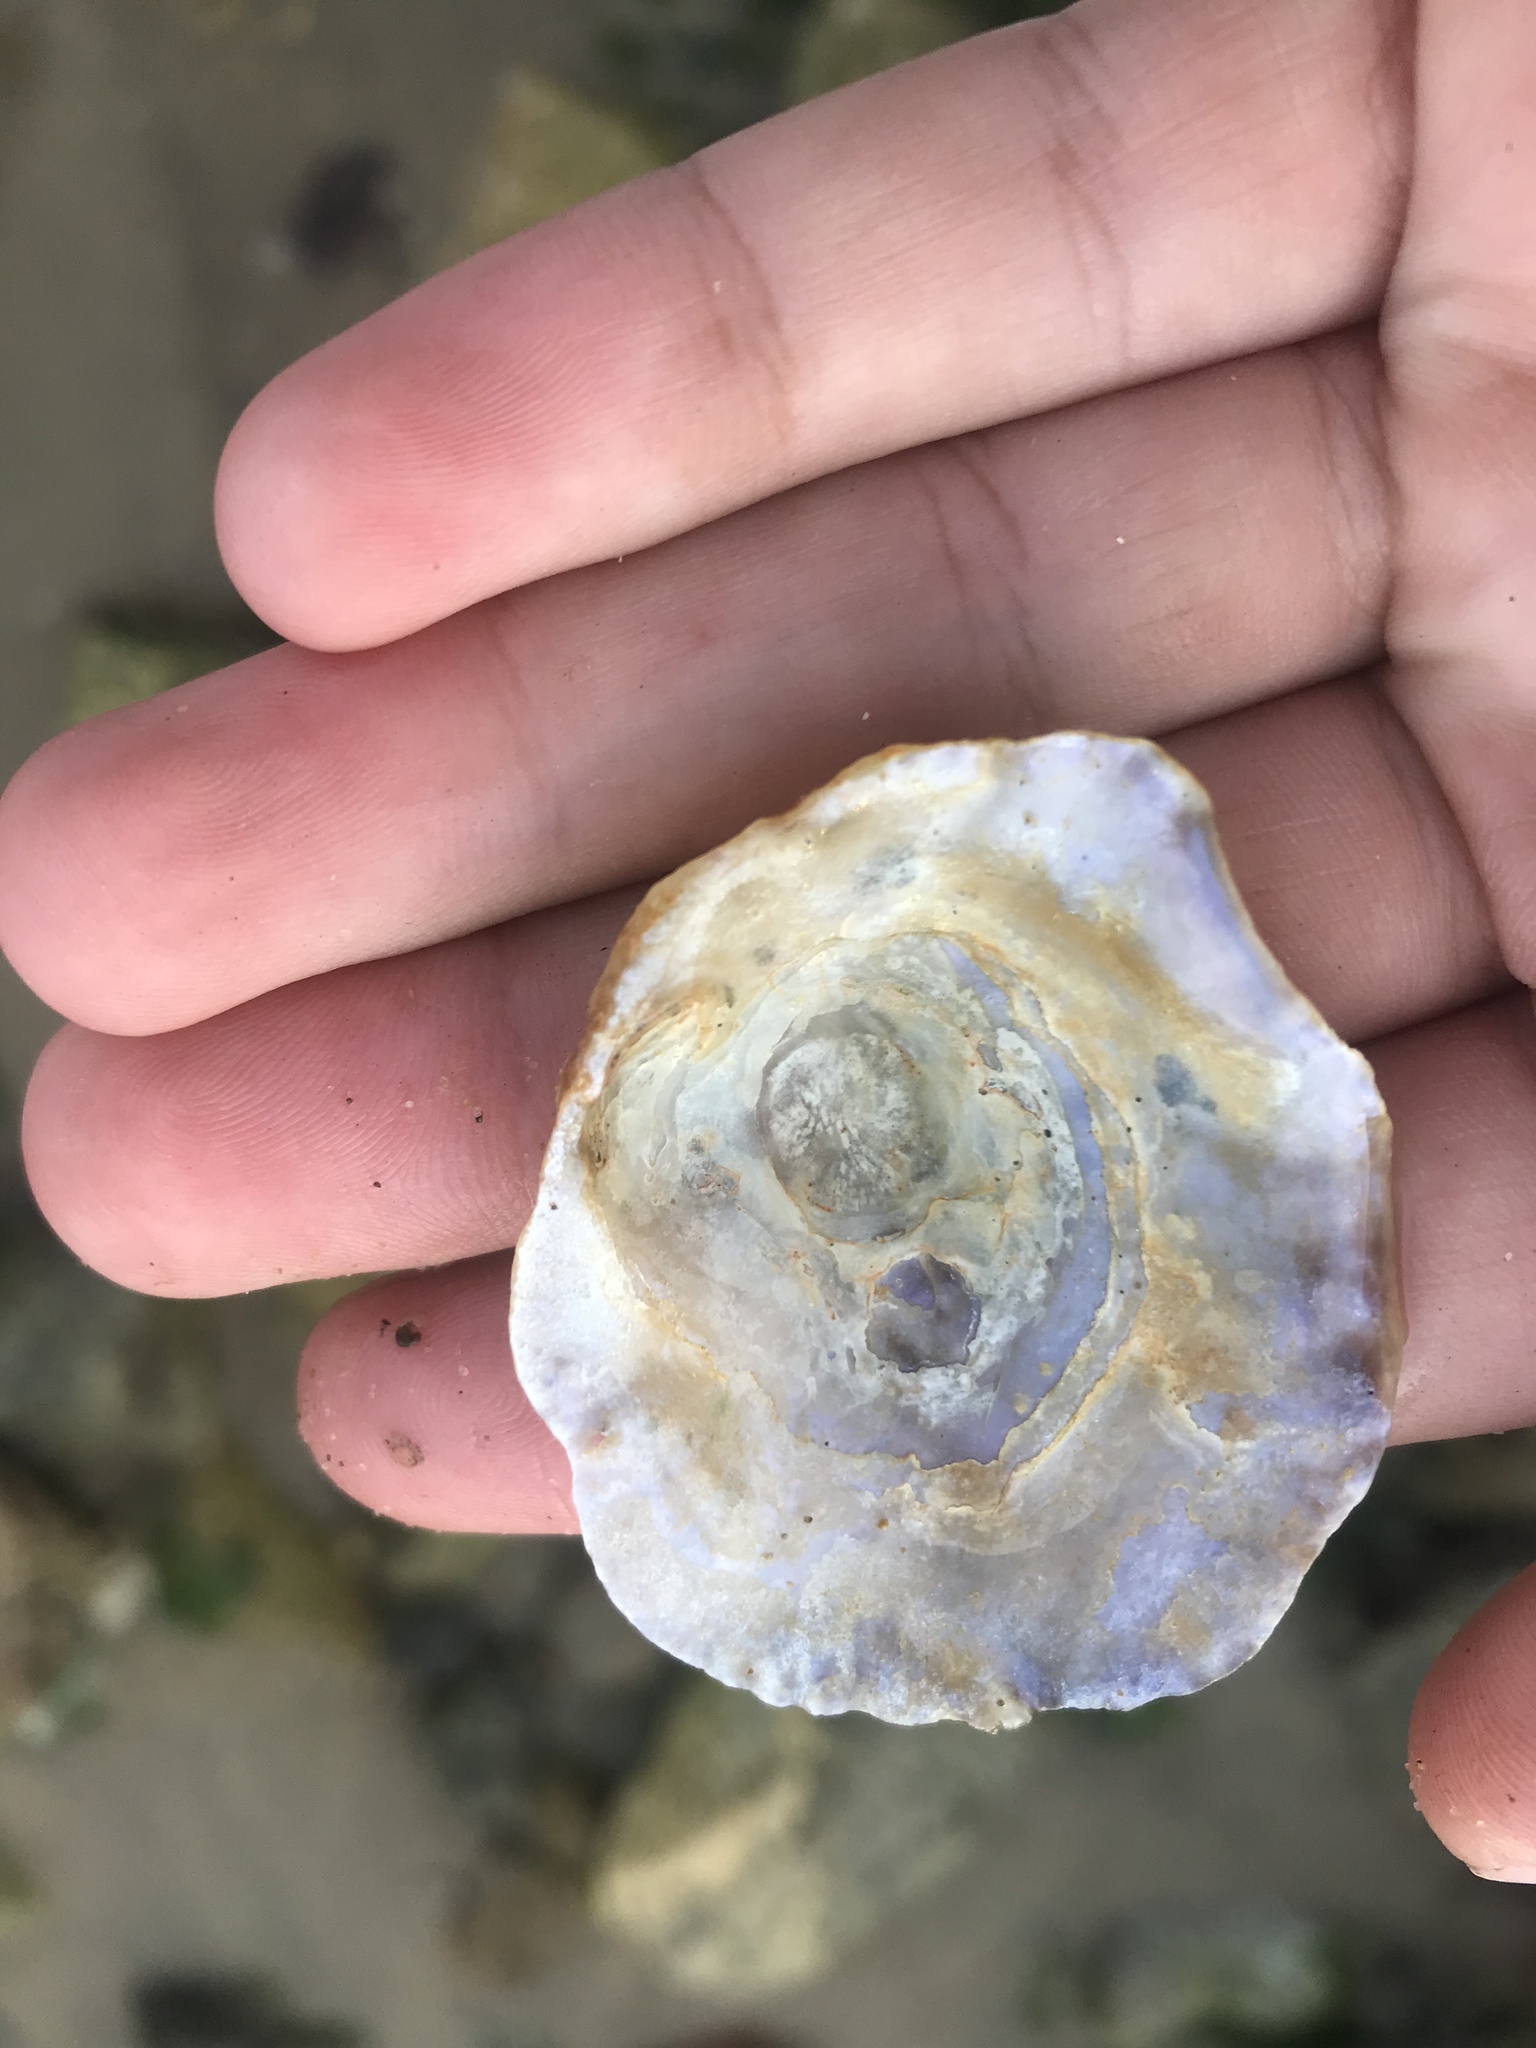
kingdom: Animalia
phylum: Mollusca
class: Bivalvia
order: Pectinida
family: Anomiidae
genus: Pododesmus
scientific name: Pododesmus macrochisma
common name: Alaska jingle
